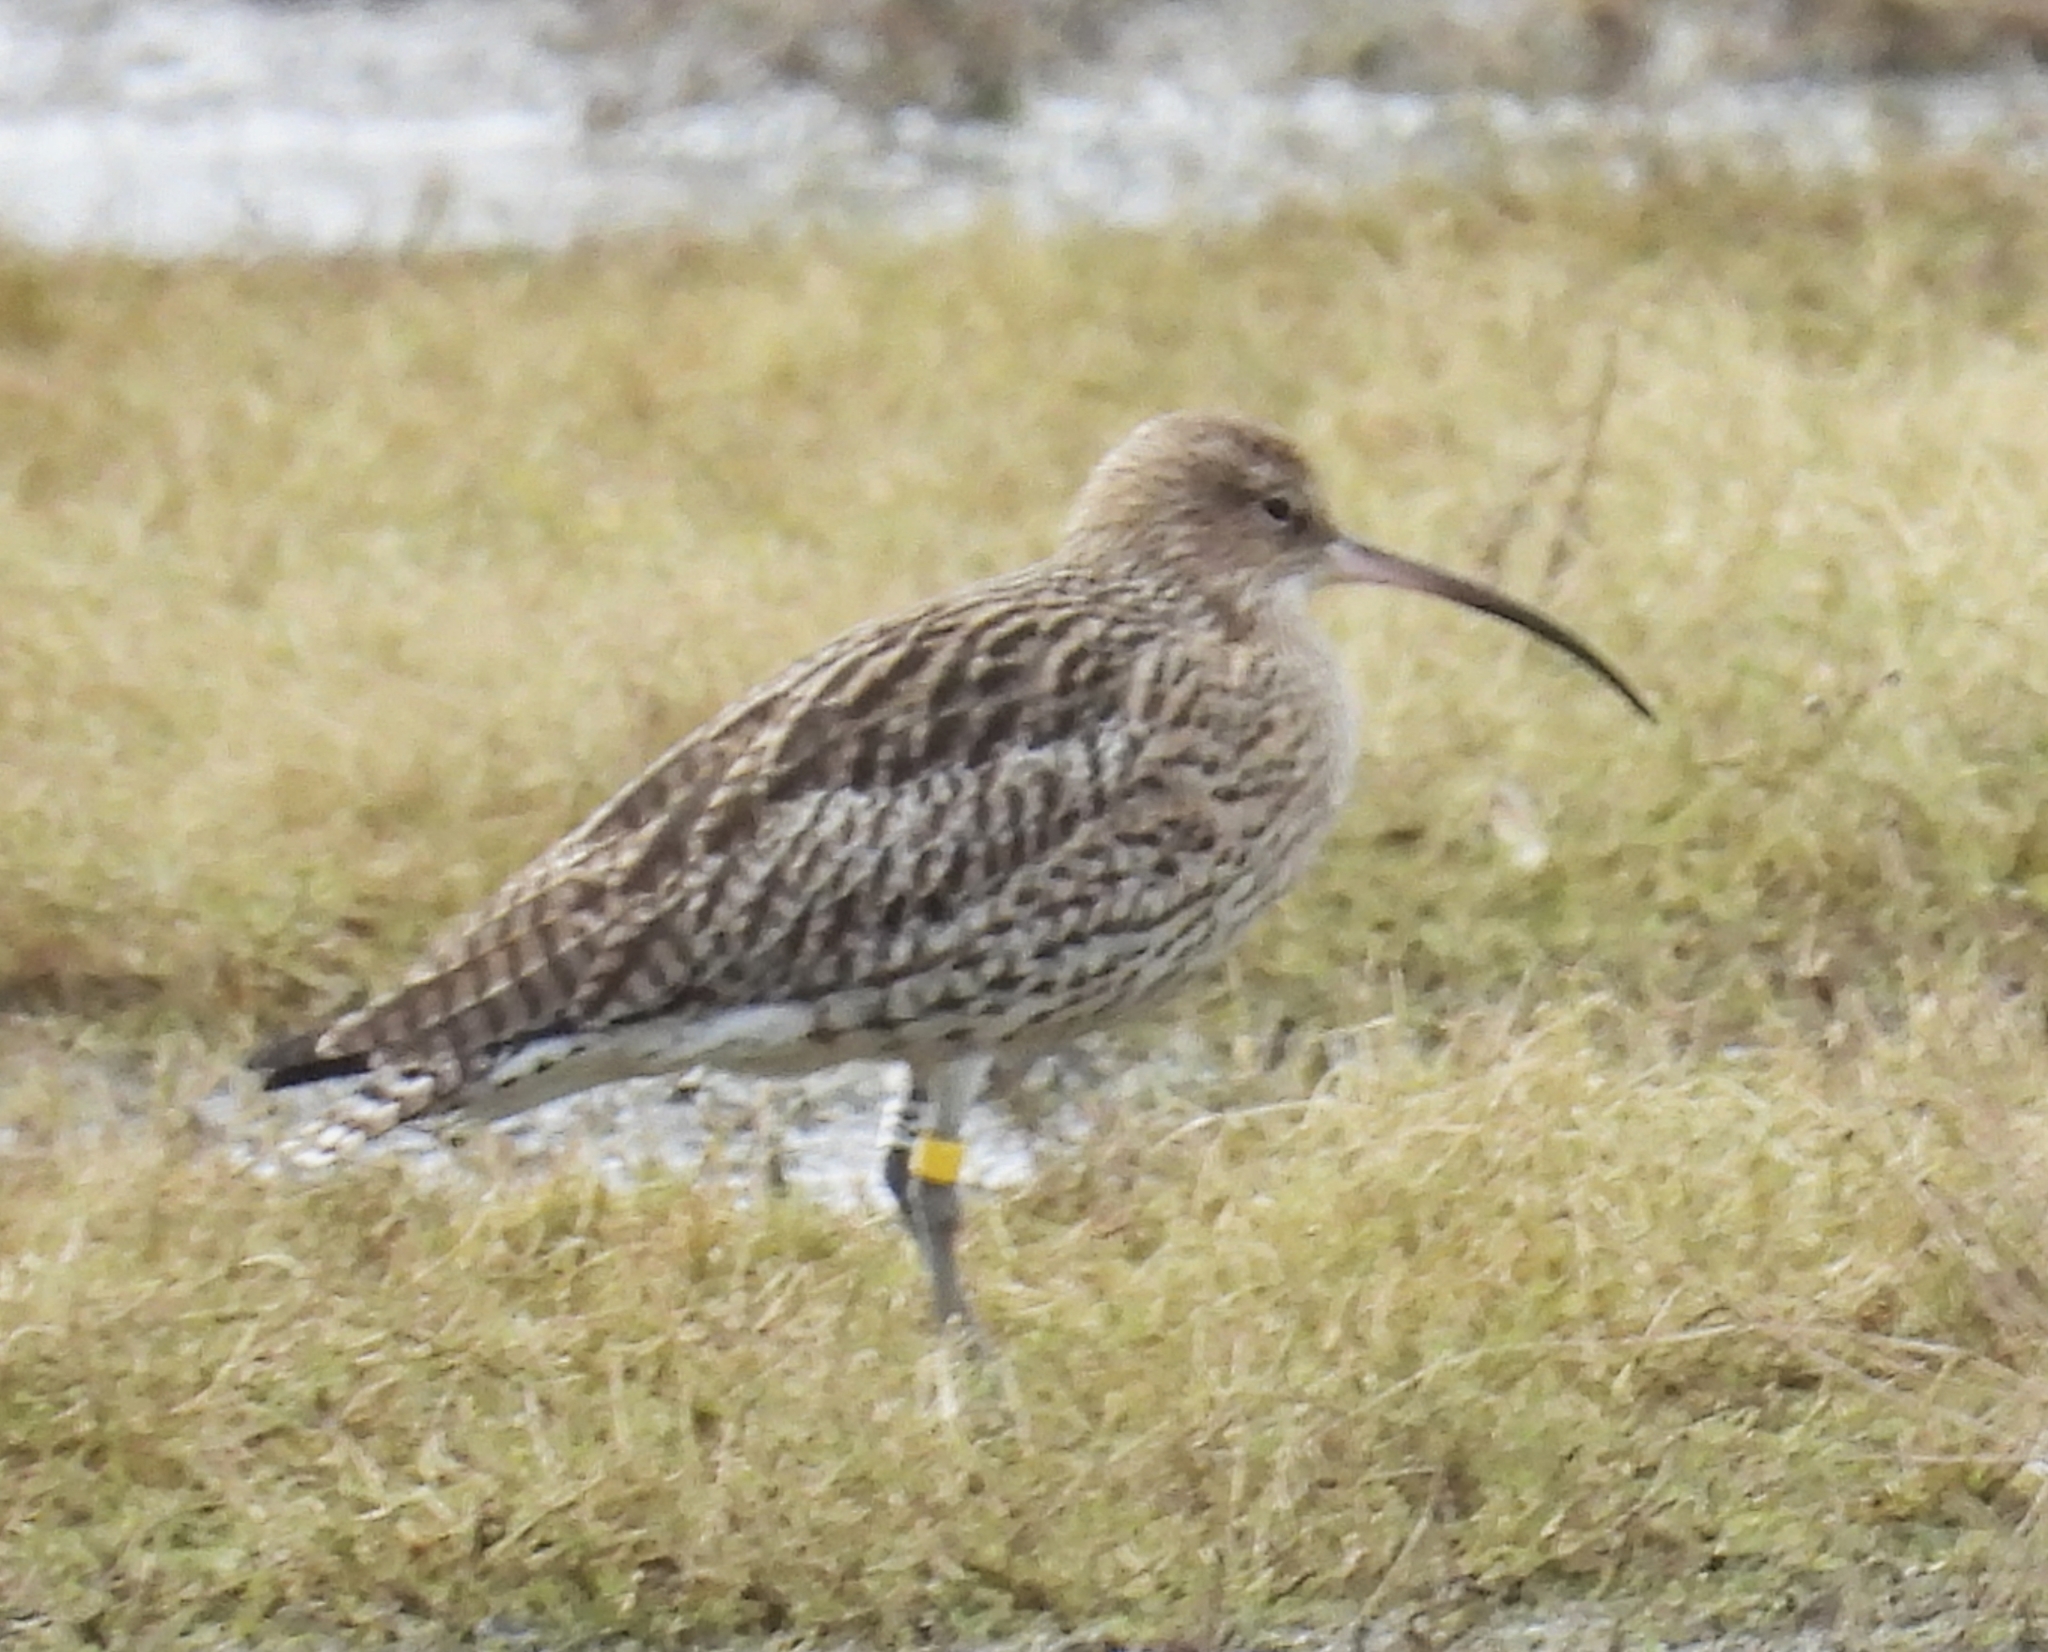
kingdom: Animalia
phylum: Chordata
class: Aves
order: Charadriiformes
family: Scolopacidae
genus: Numenius
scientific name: Numenius arquata
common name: Eurasian curlew
